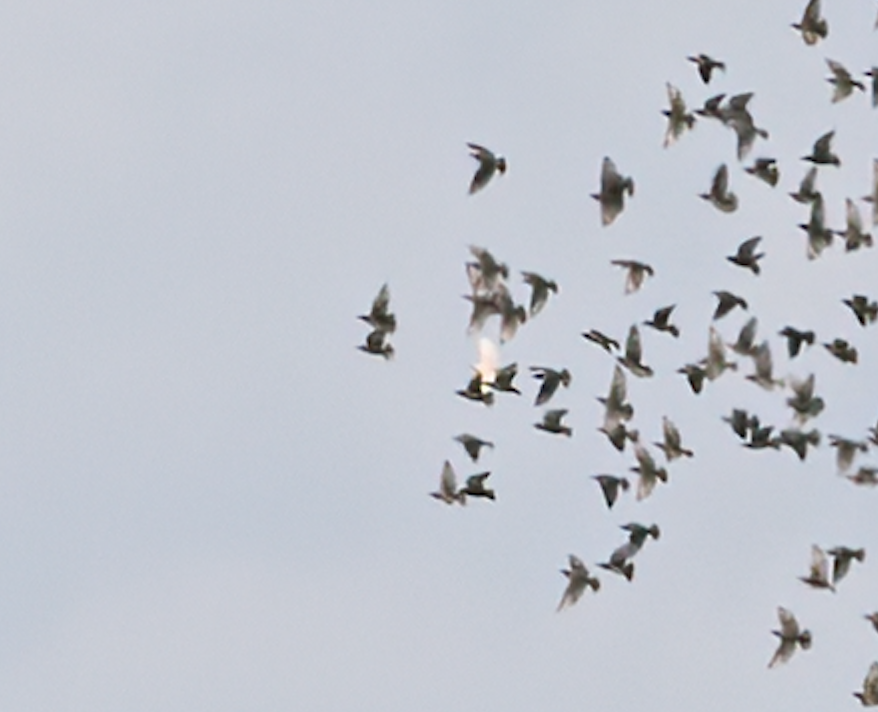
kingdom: Animalia
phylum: Chordata
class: Aves
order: Passeriformes
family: Sturnidae
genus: Sturnus
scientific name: Sturnus vulgaris
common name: Common starling
